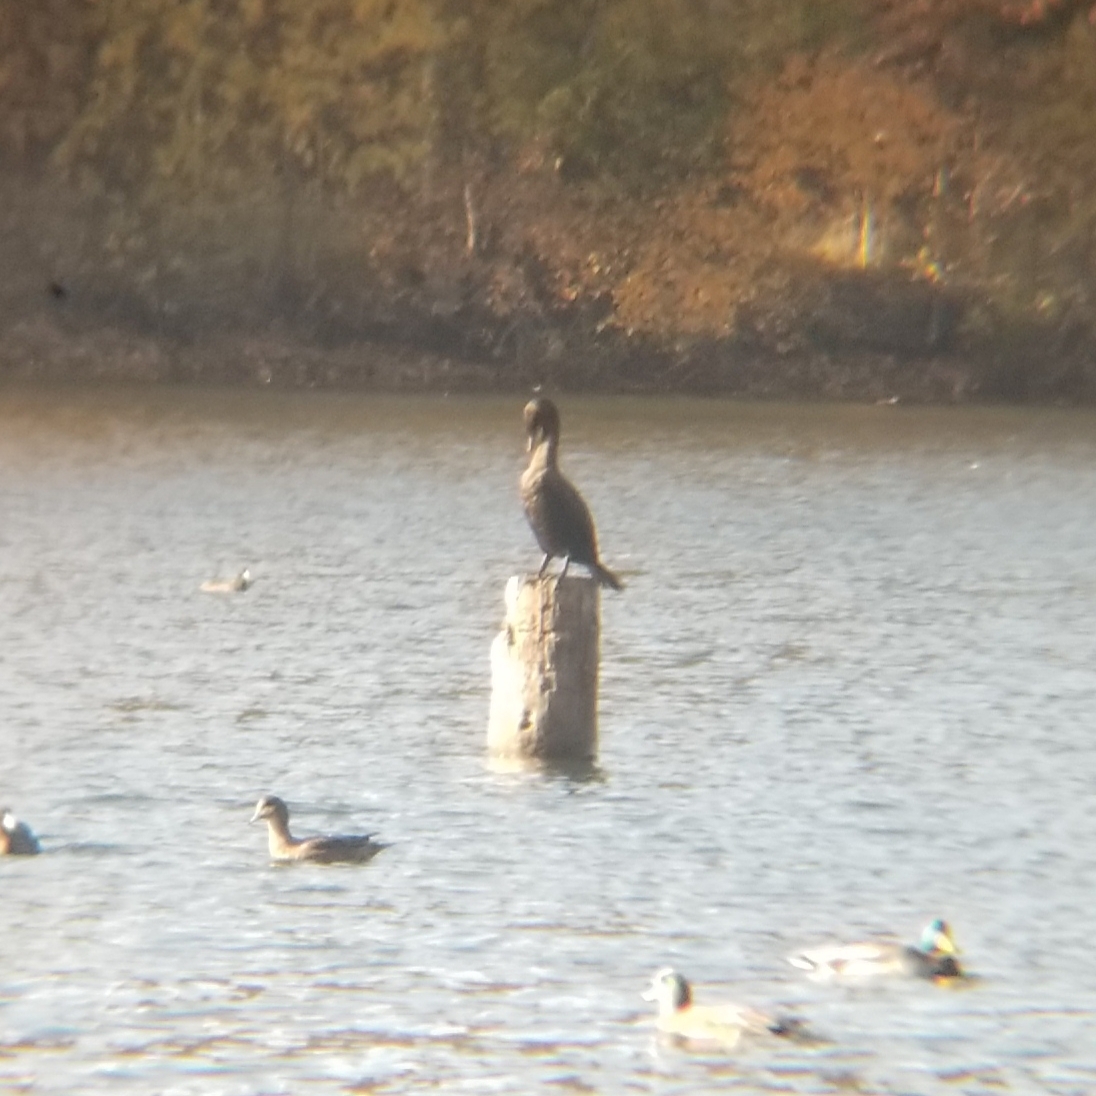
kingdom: Animalia
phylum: Chordata
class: Aves
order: Suliformes
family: Phalacrocoracidae
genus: Phalacrocorax
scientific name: Phalacrocorax auritus
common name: Double-crested cormorant
